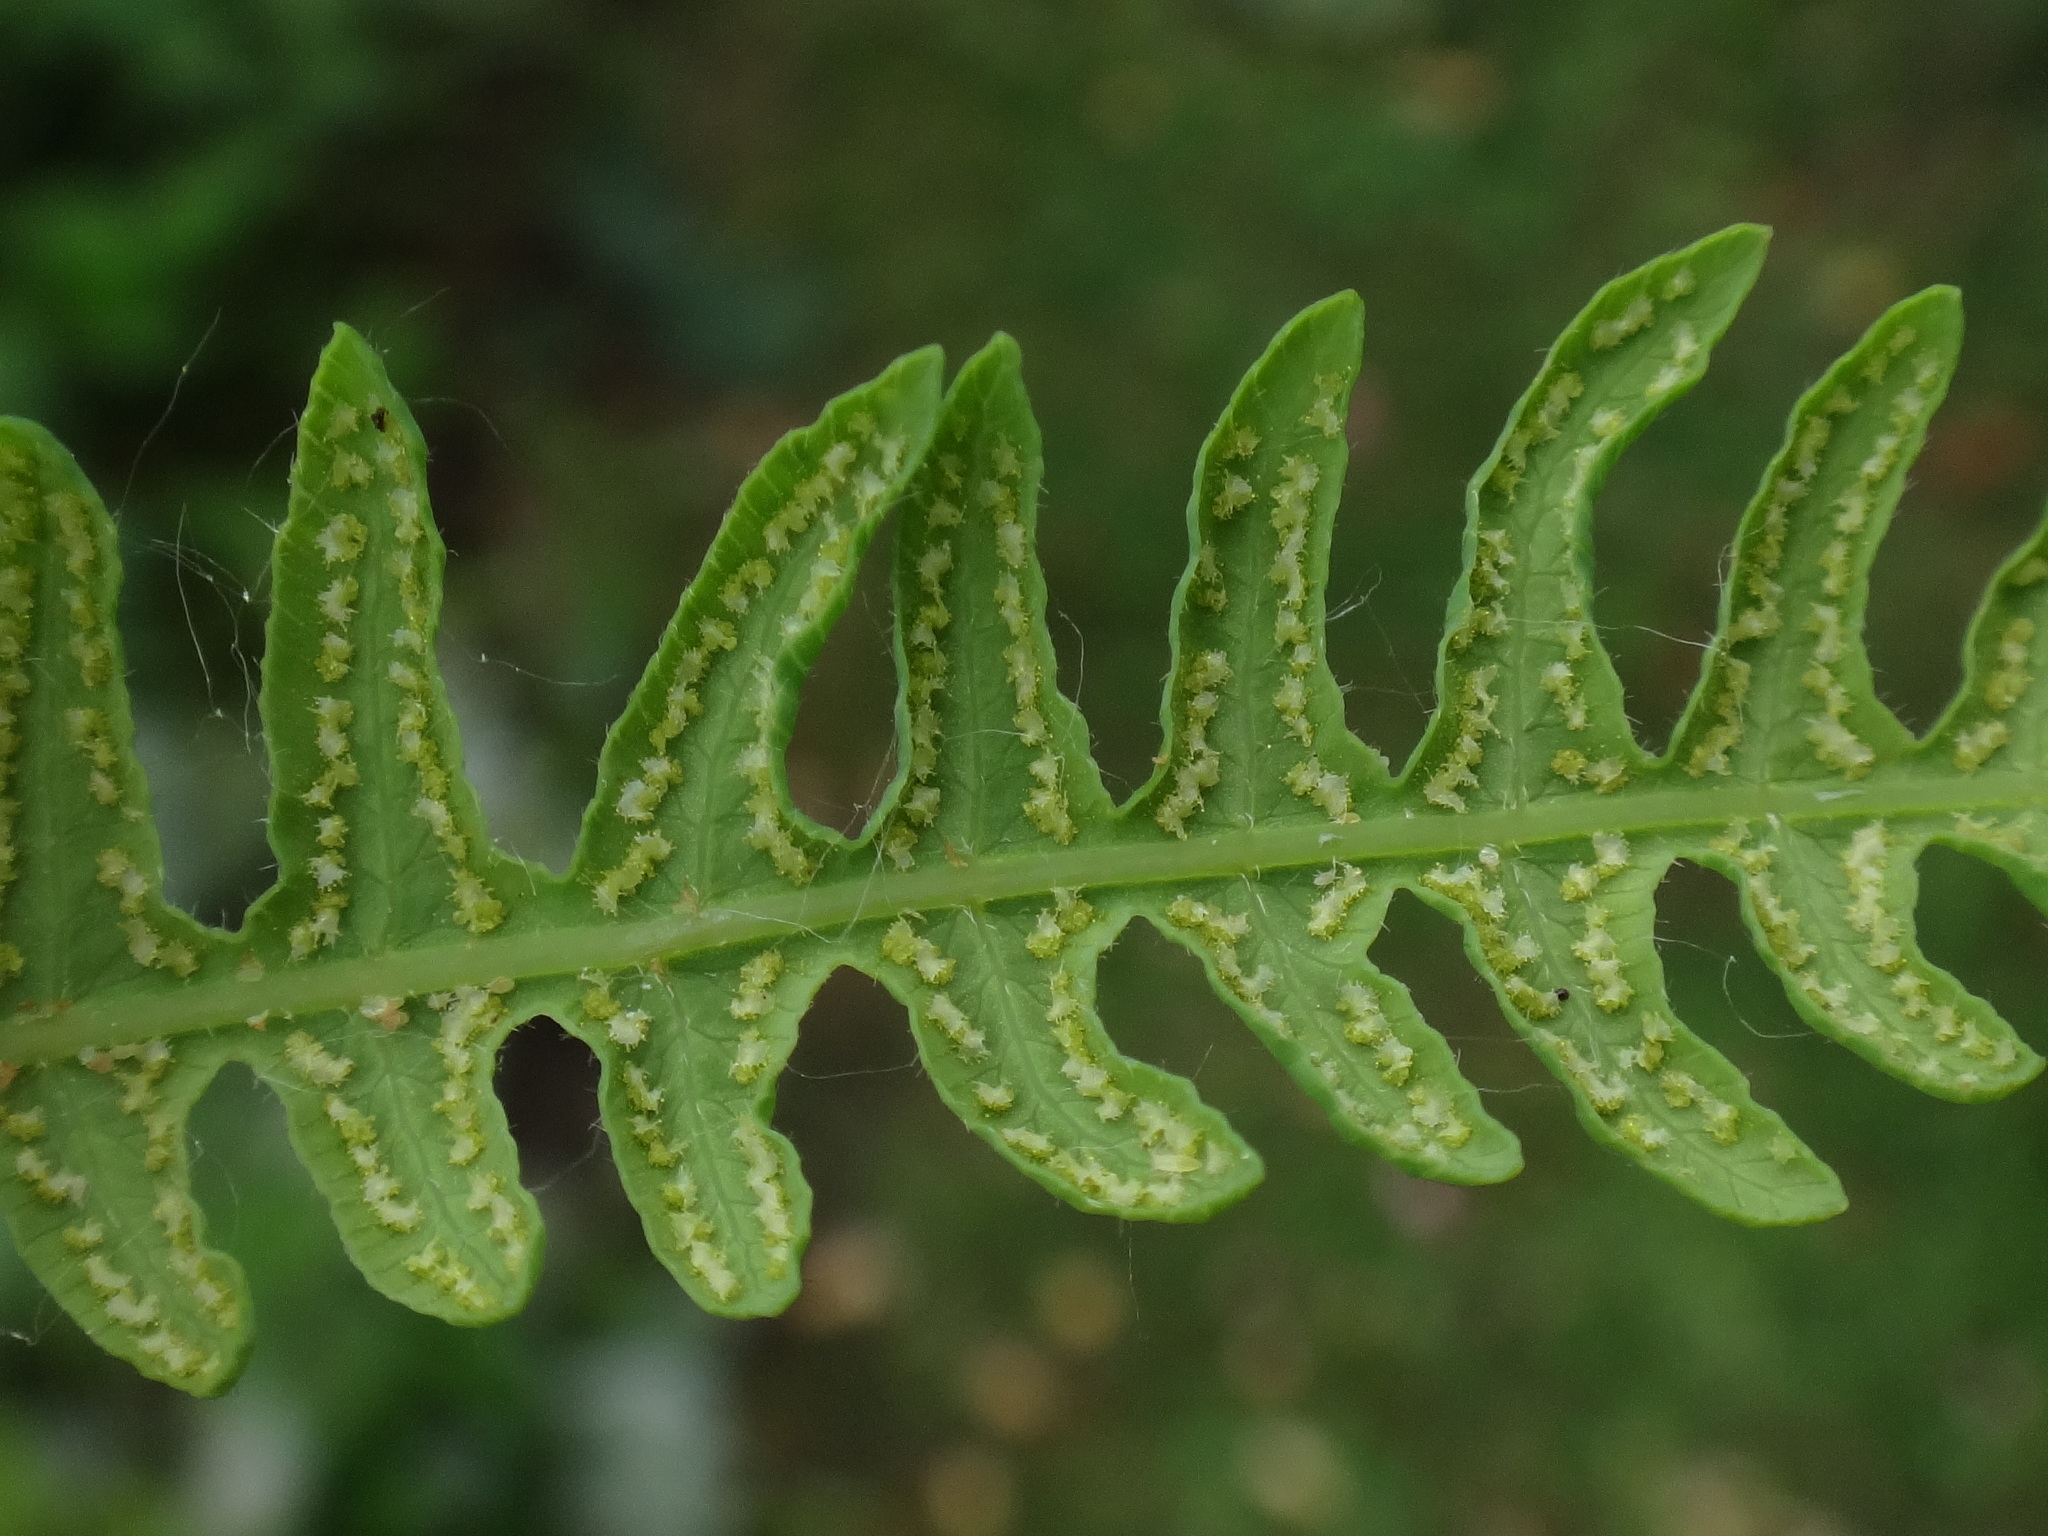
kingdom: Plantae
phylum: Tracheophyta
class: Polypodiopsida
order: Polypodiales
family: Thelypteridaceae
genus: Thelypteris
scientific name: Thelypteris palustris
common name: Marsh fern
